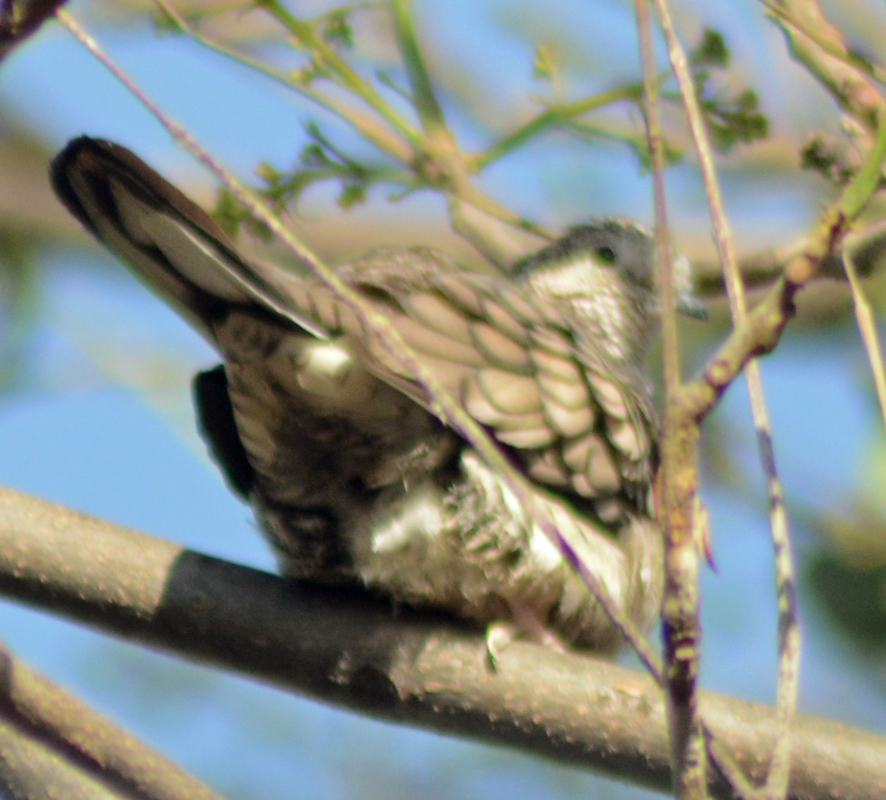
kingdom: Animalia
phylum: Chordata
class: Aves
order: Columbiformes
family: Columbidae
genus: Columbina
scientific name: Columbina inca
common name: Inca dove
